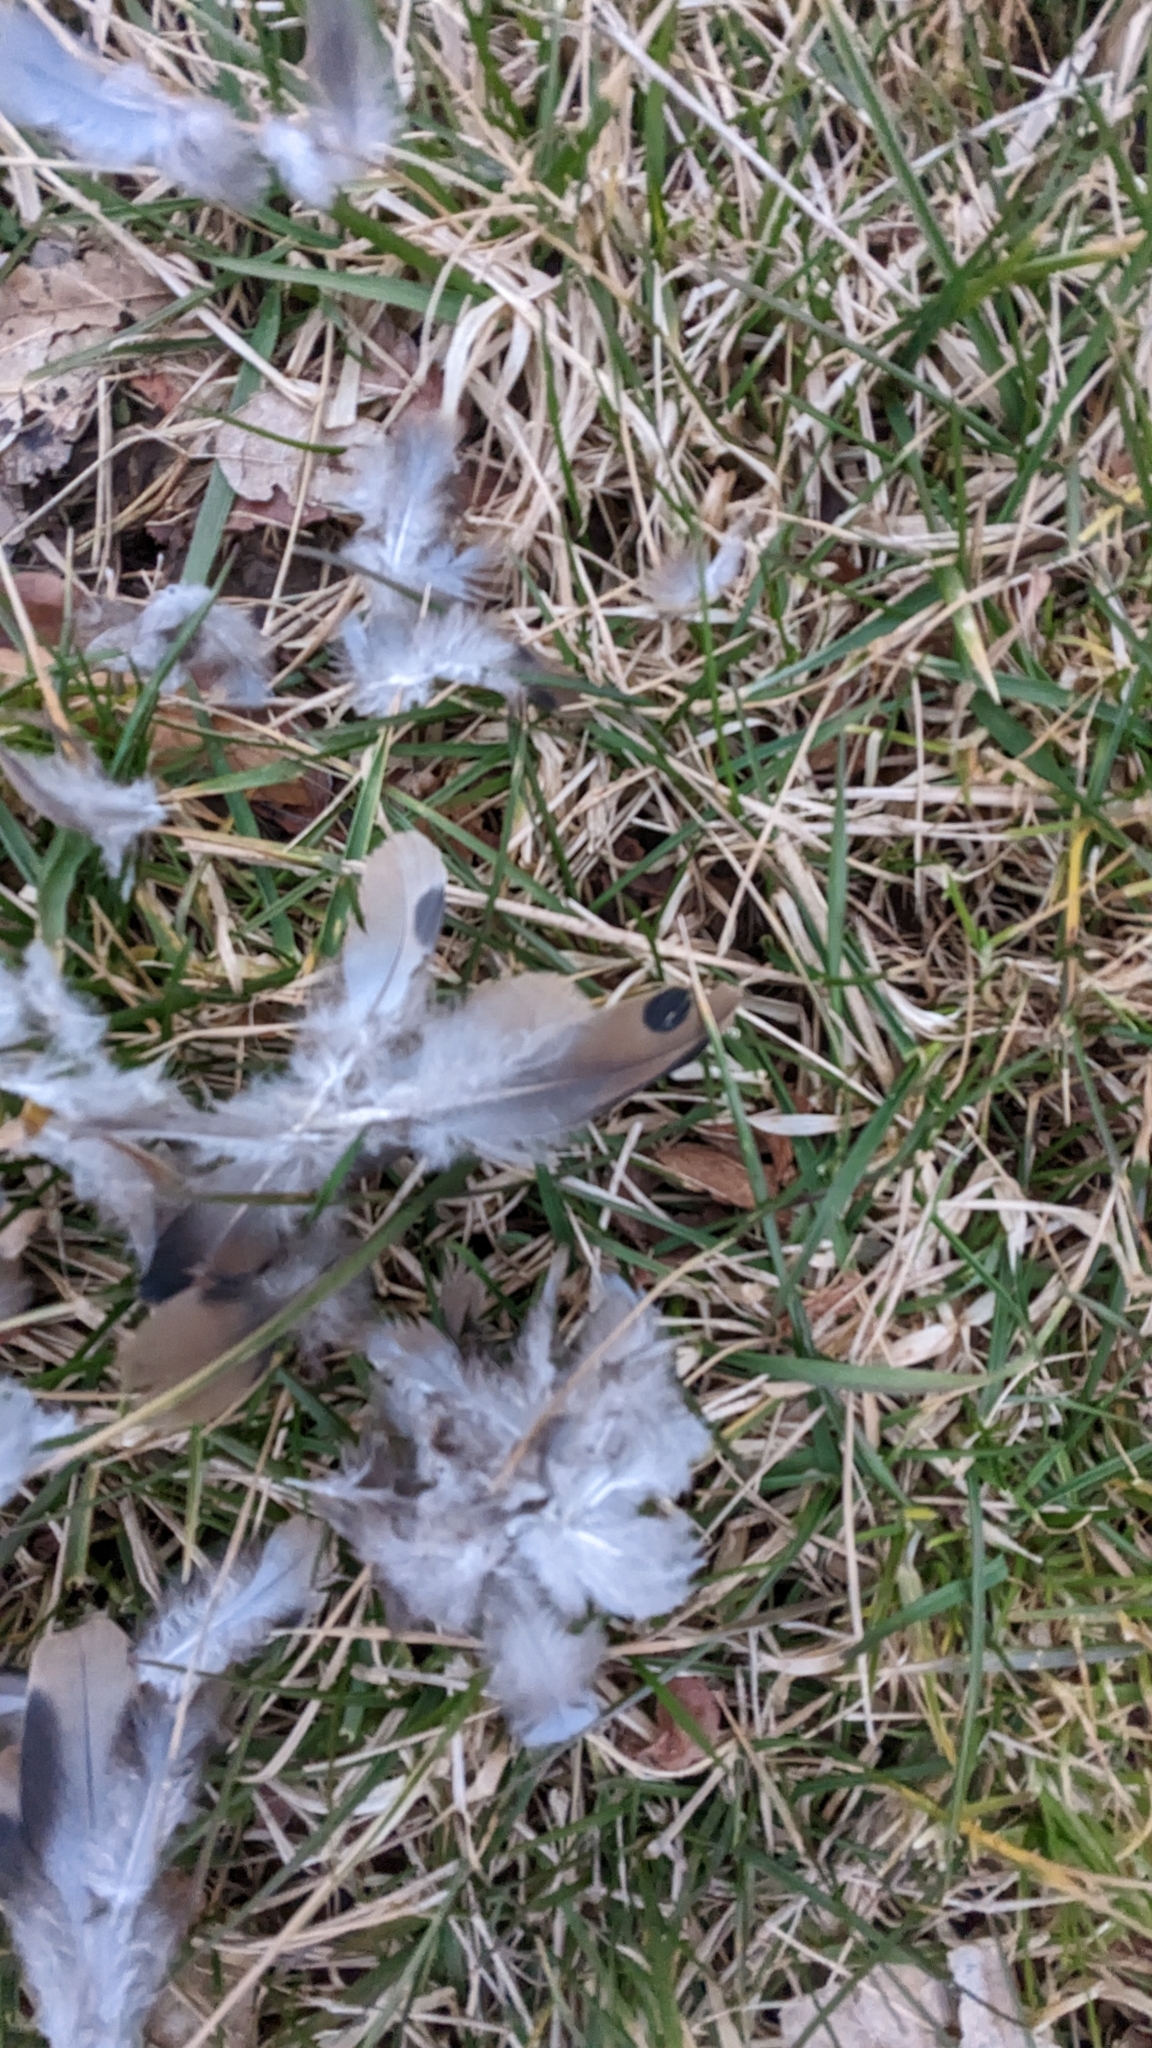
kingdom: Animalia
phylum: Chordata
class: Aves
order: Columbiformes
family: Columbidae
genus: Zenaida
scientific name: Zenaida macroura
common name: Mourning dove
